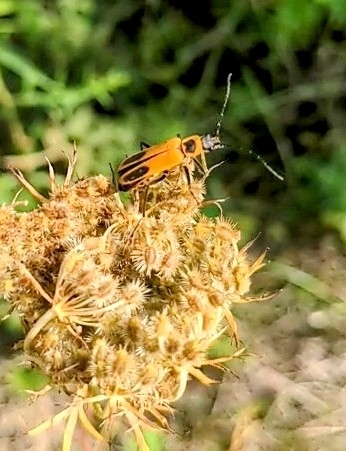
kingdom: Animalia
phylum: Arthropoda
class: Insecta
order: Coleoptera
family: Cantharidae
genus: Chauliognathus
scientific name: Chauliognathus pensylvanicus
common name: Goldenrod soldier beetle
